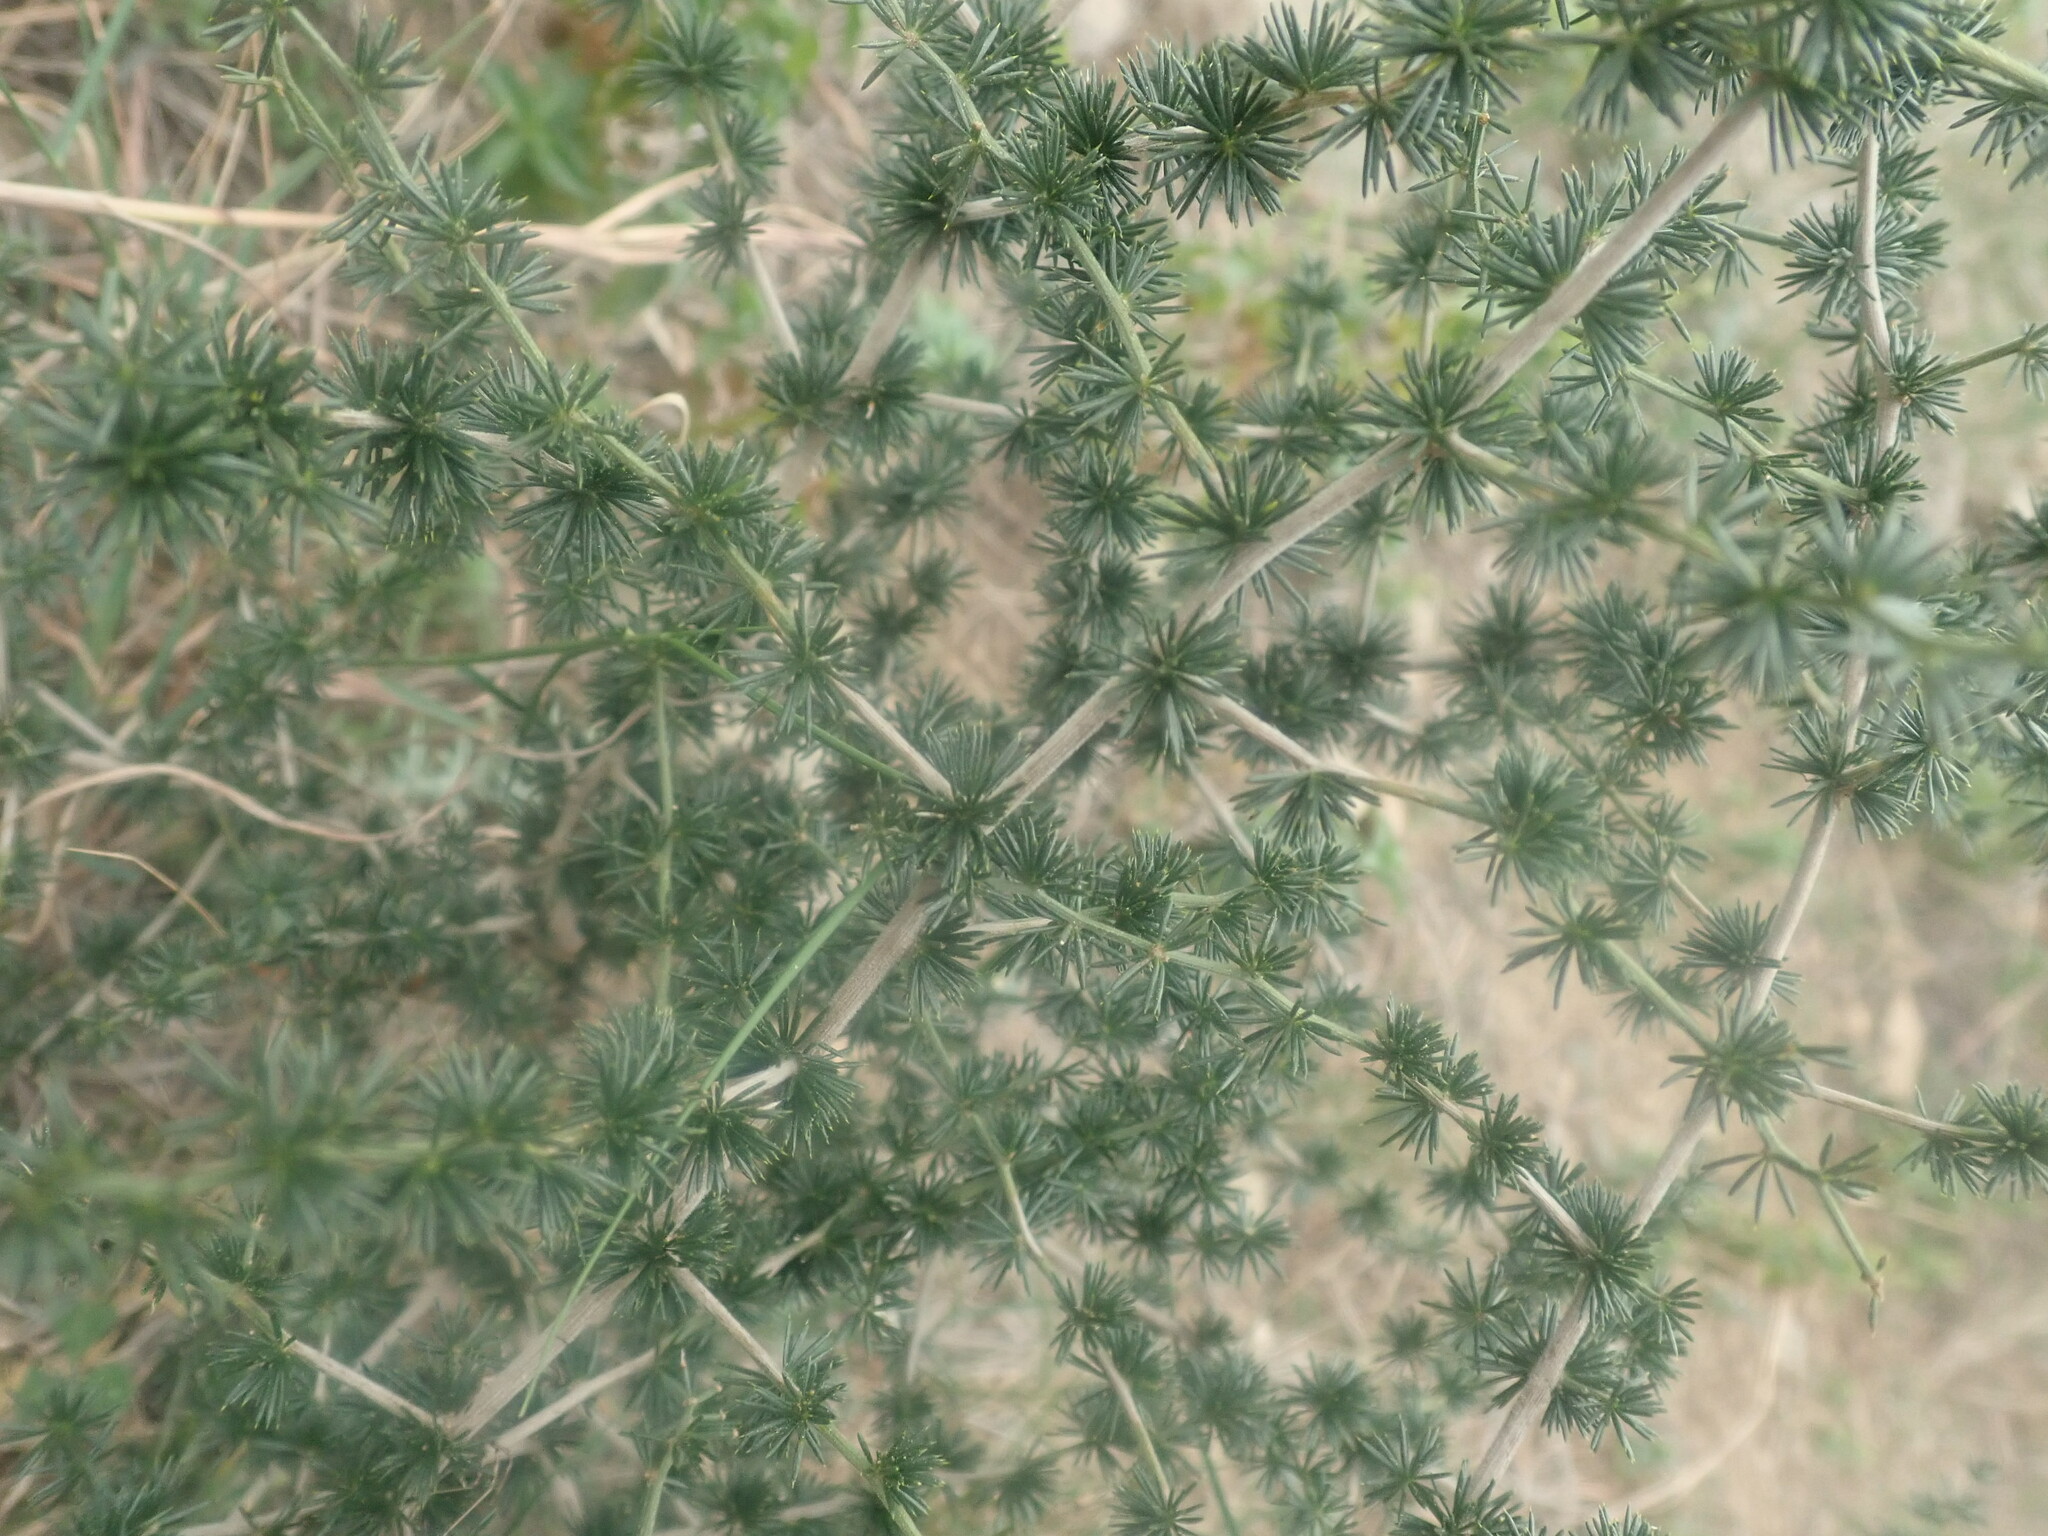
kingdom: Plantae
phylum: Tracheophyta
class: Liliopsida
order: Asparagales
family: Asparagaceae
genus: Asparagus
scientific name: Asparagus acutifolius
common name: Wild asparagus
